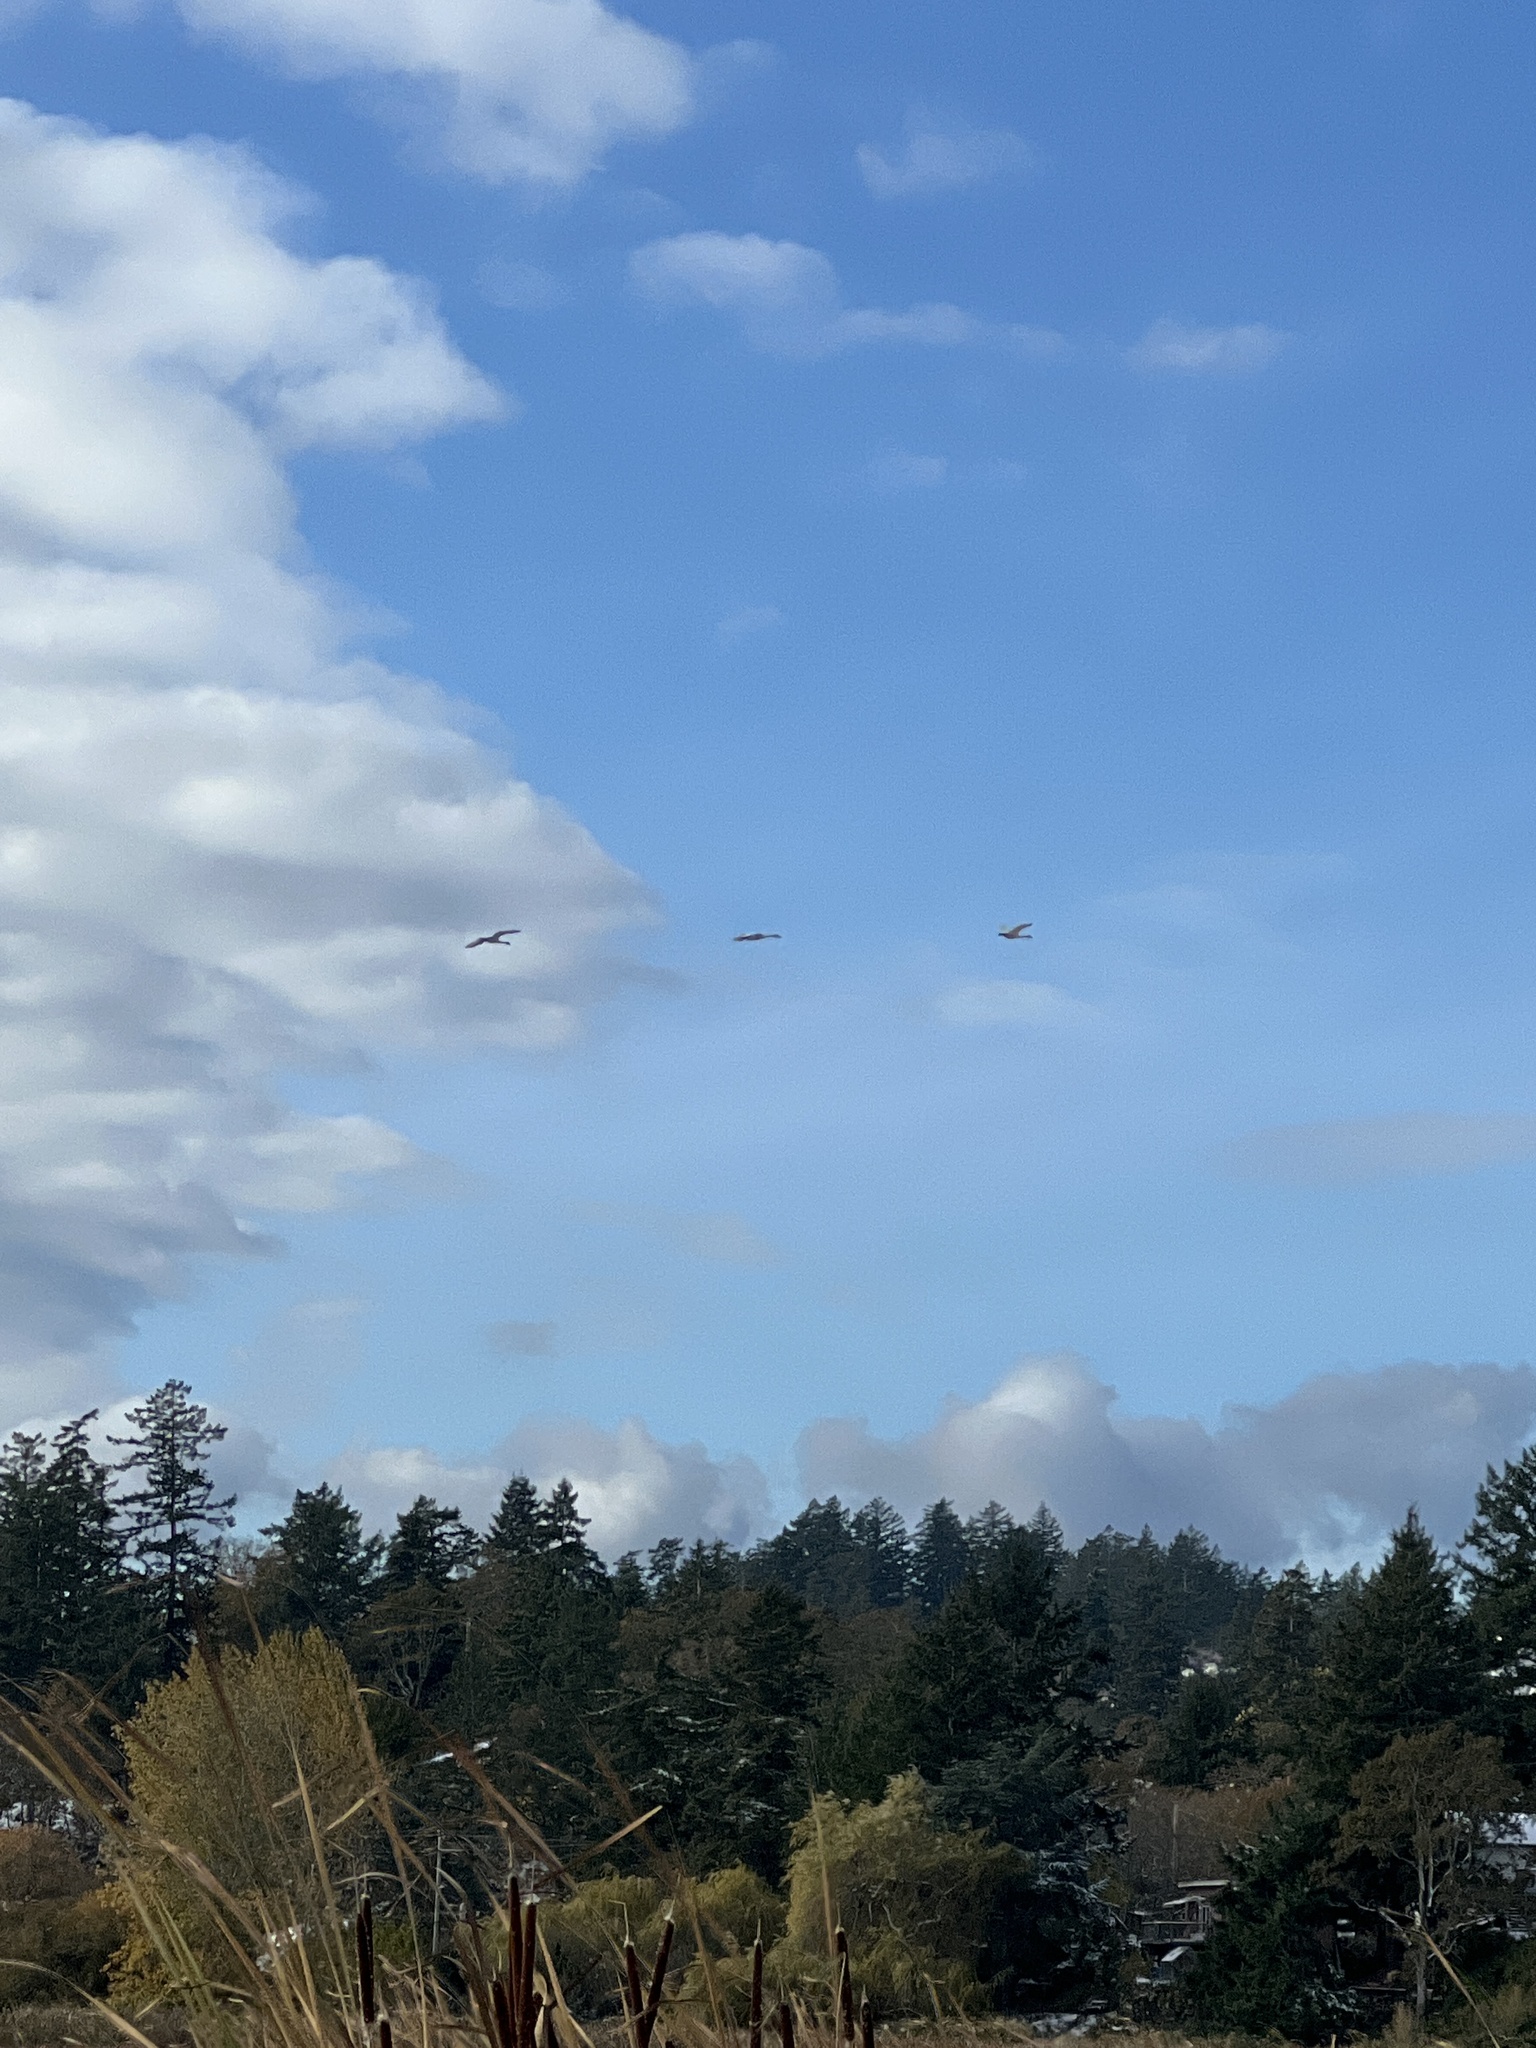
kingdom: Animalia
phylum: Chordata
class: Aves
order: Anseriformes
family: Anatidae
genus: Cygnus
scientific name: Cygnus columbianus
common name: Tundra swan
